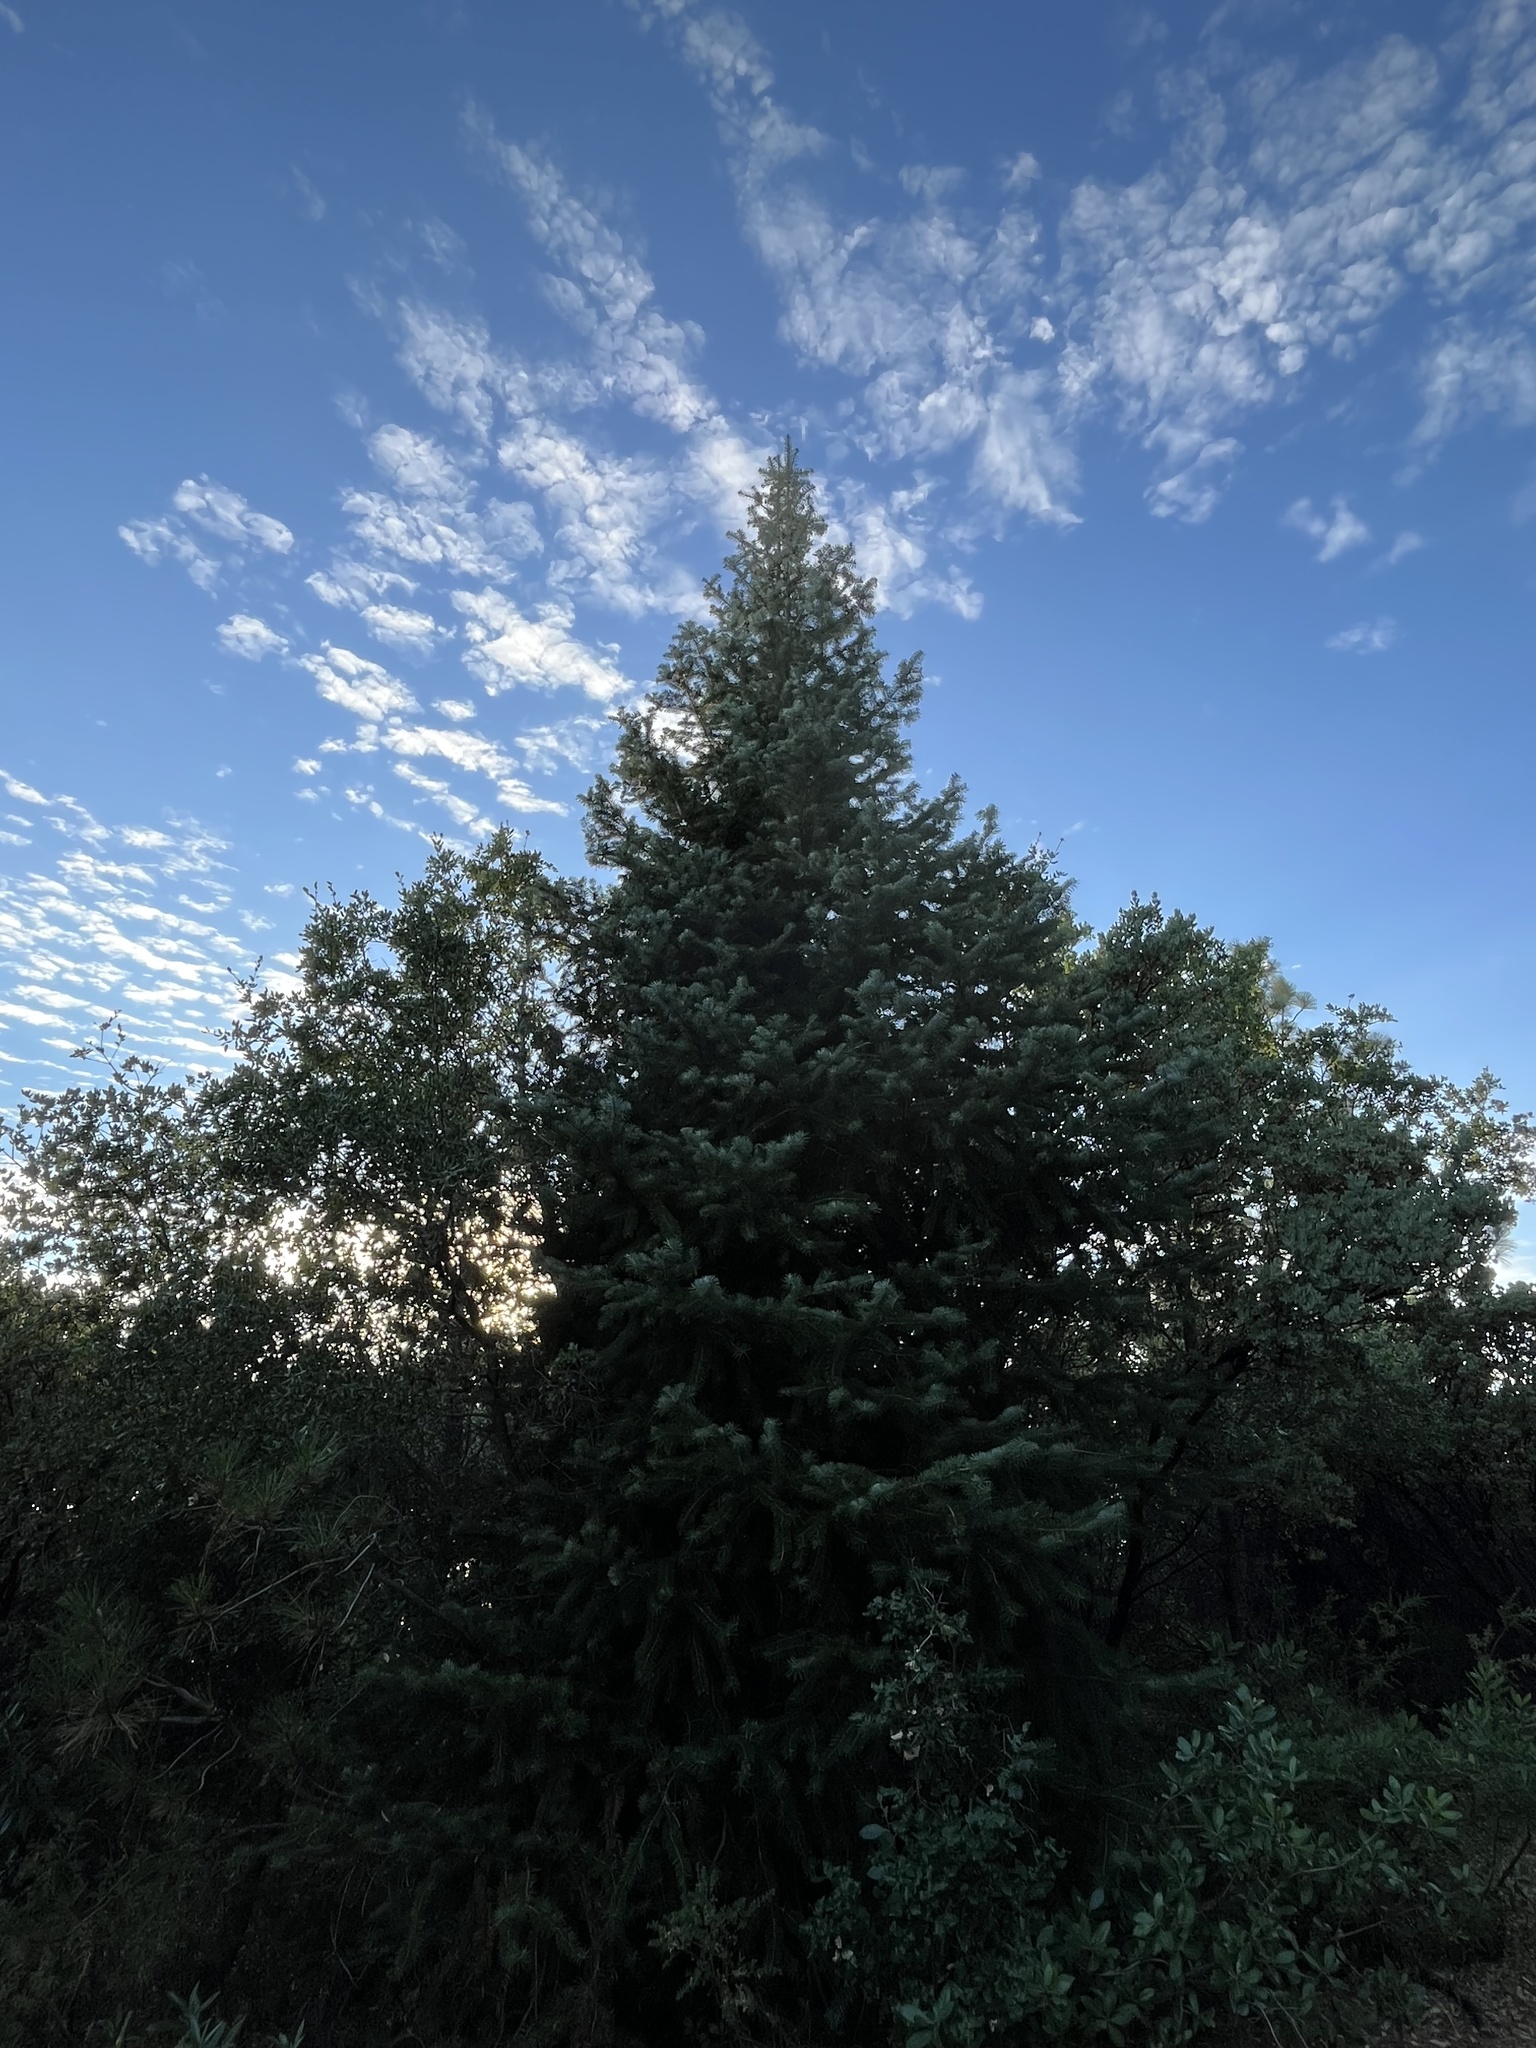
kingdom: Plantae
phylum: Tracheophyta
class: Pinopsida
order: Pinales
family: Pinaceae
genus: Abies
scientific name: Abies bracteata
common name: Bristlecone fir
